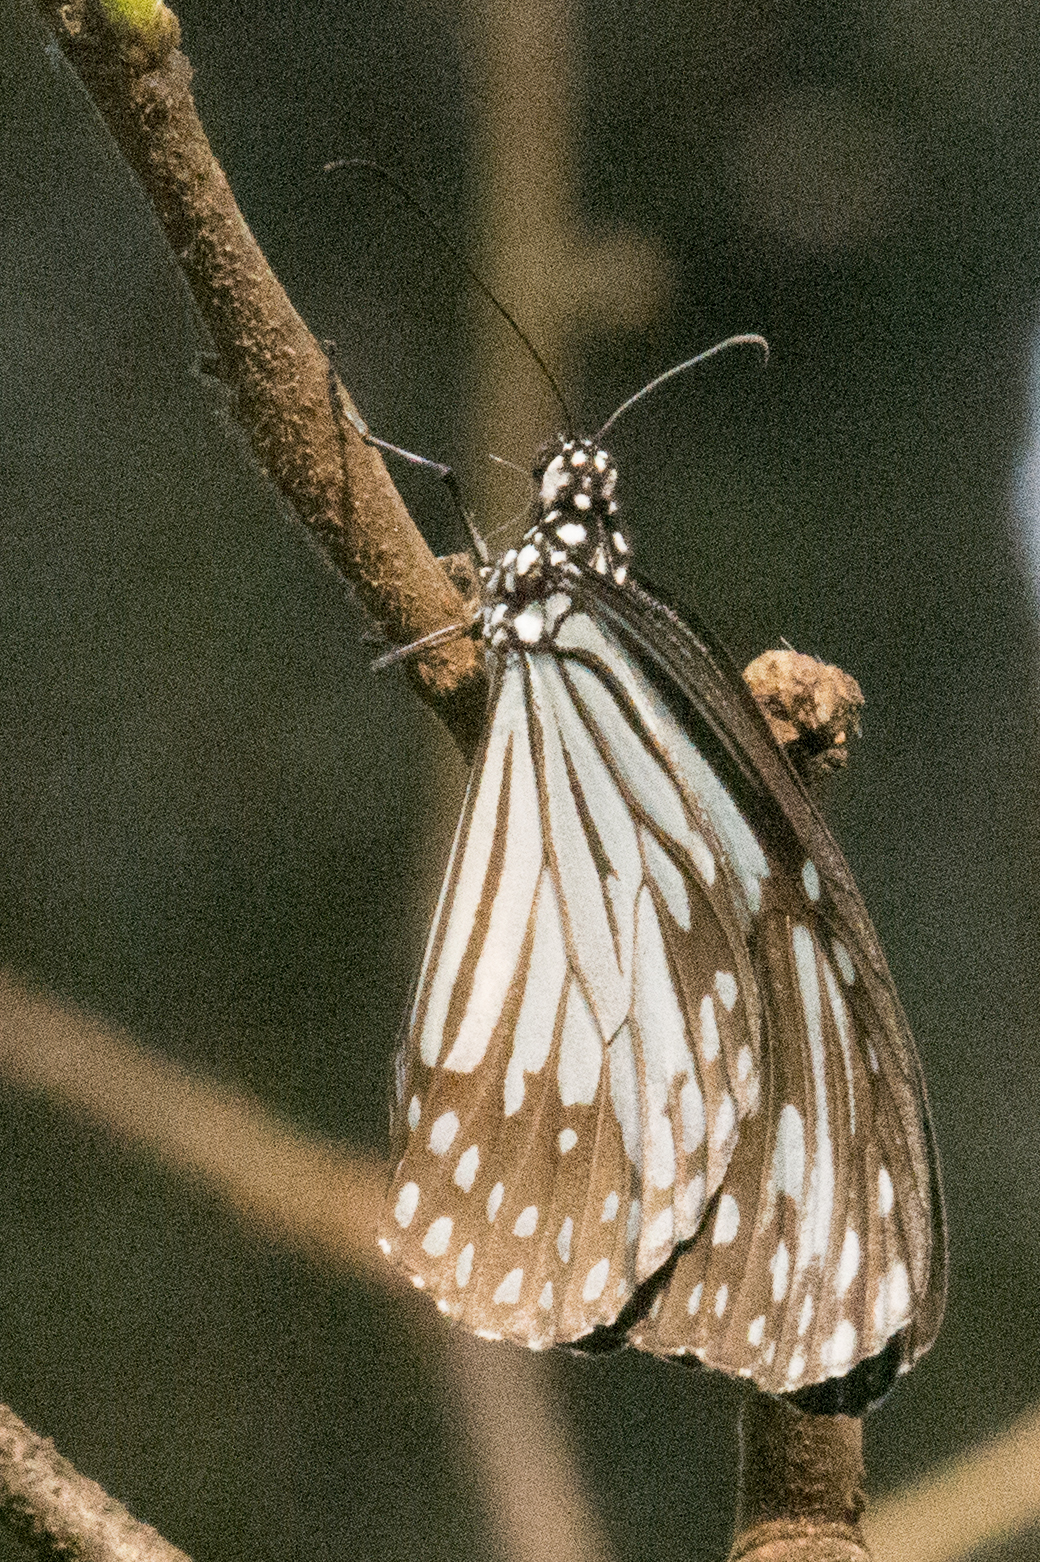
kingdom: Animalia
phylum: Arthropoda
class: Insecta
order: Lepidoptera
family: Nymphalidae
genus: Parantica
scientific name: Parantica aglea
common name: Glassy tiger
